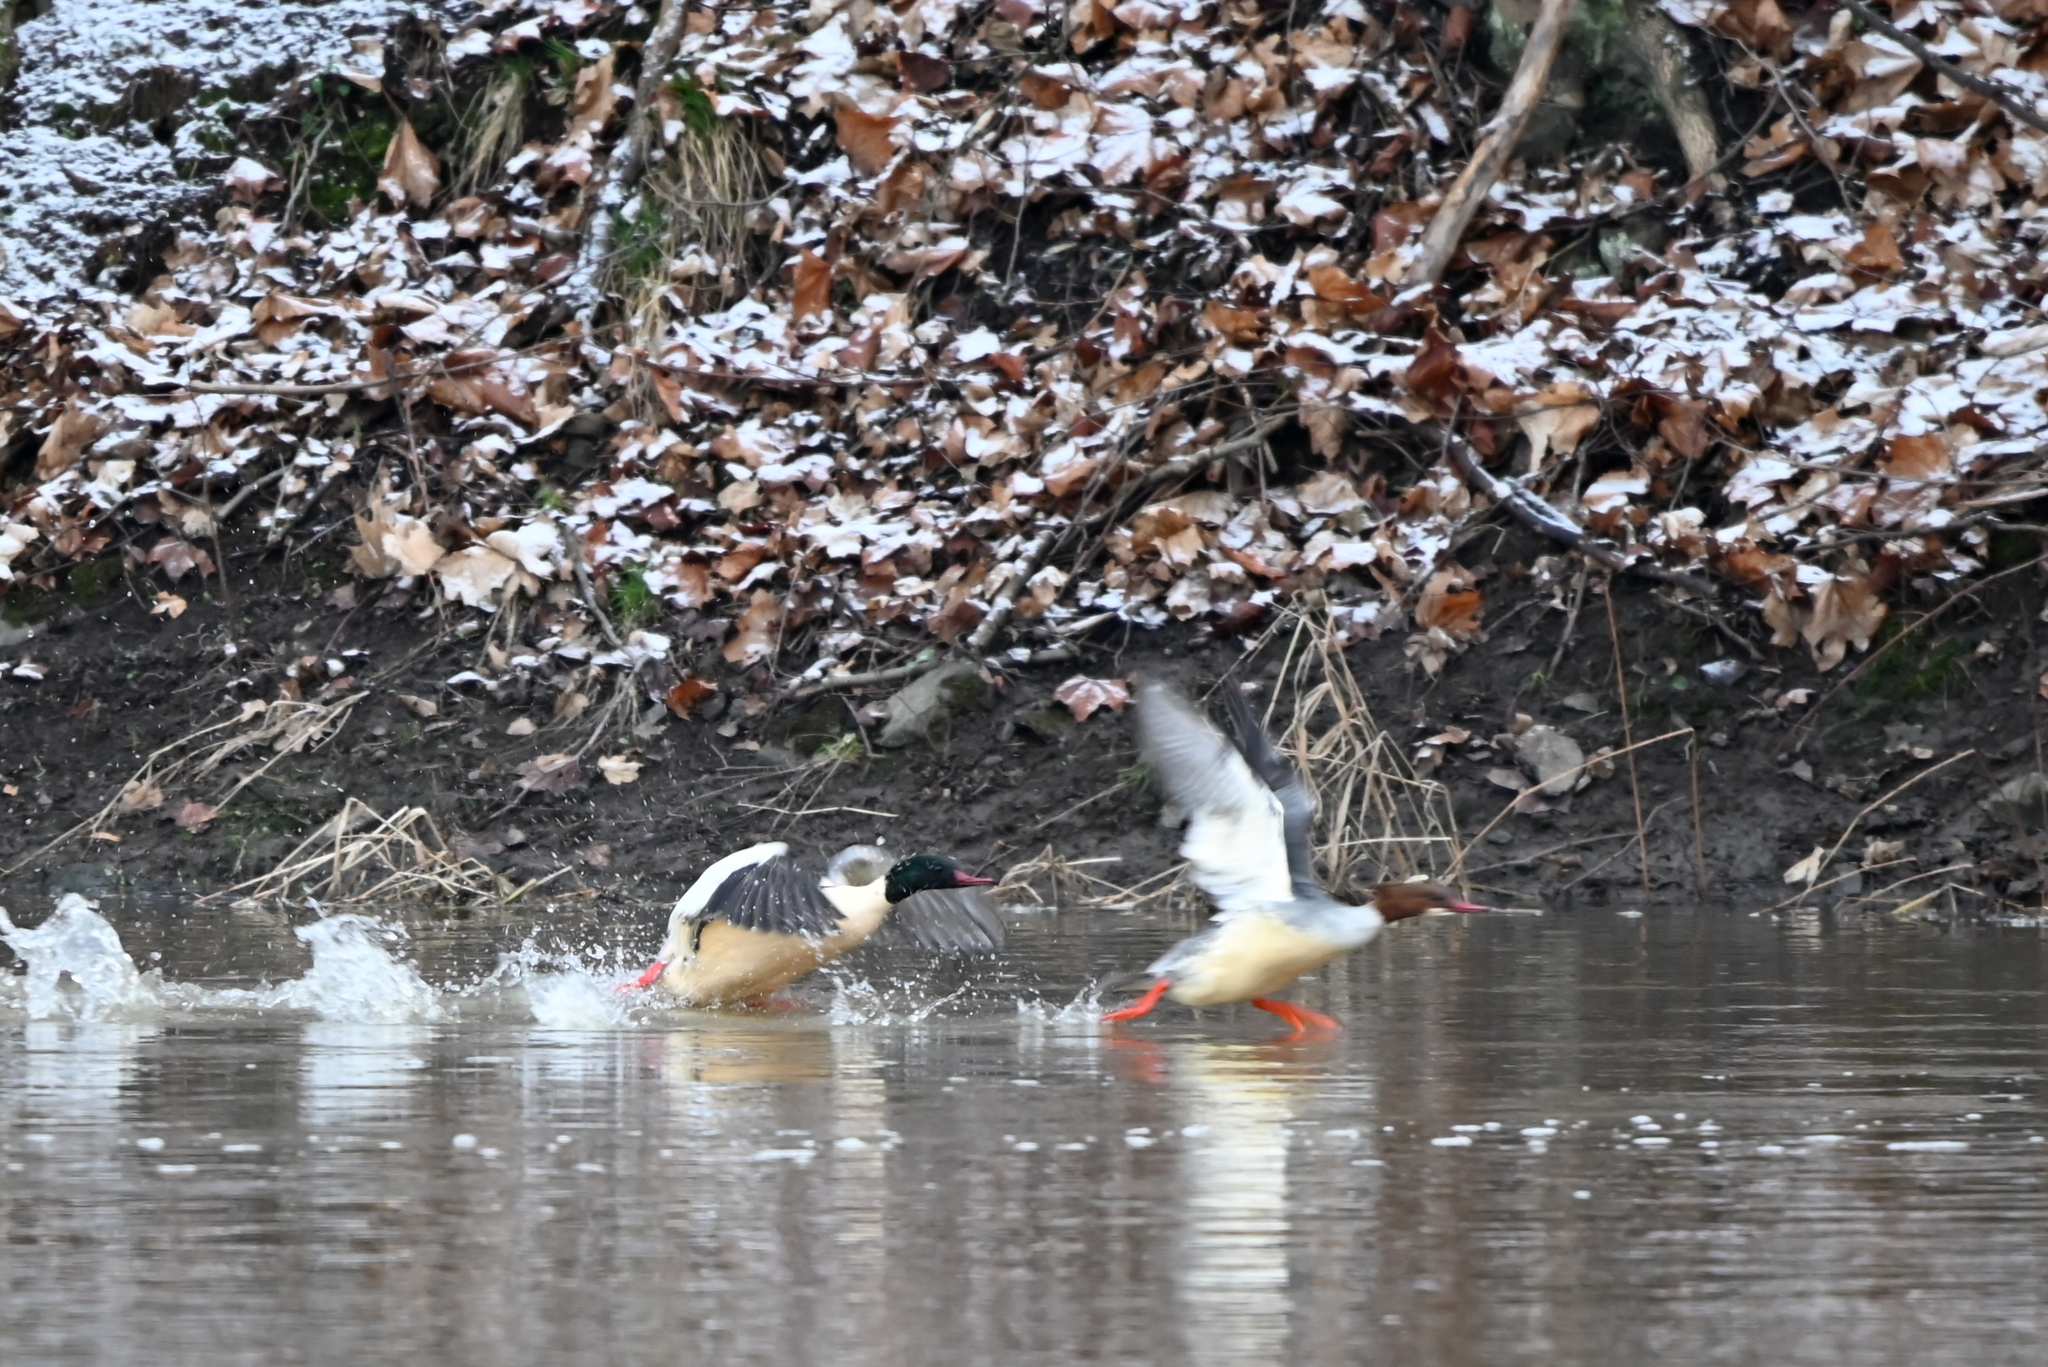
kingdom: Animalia
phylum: Chordata
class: Aves
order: Anseriformes
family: Anatidae
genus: Mergus
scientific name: Mergus merganser
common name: Common merganser
